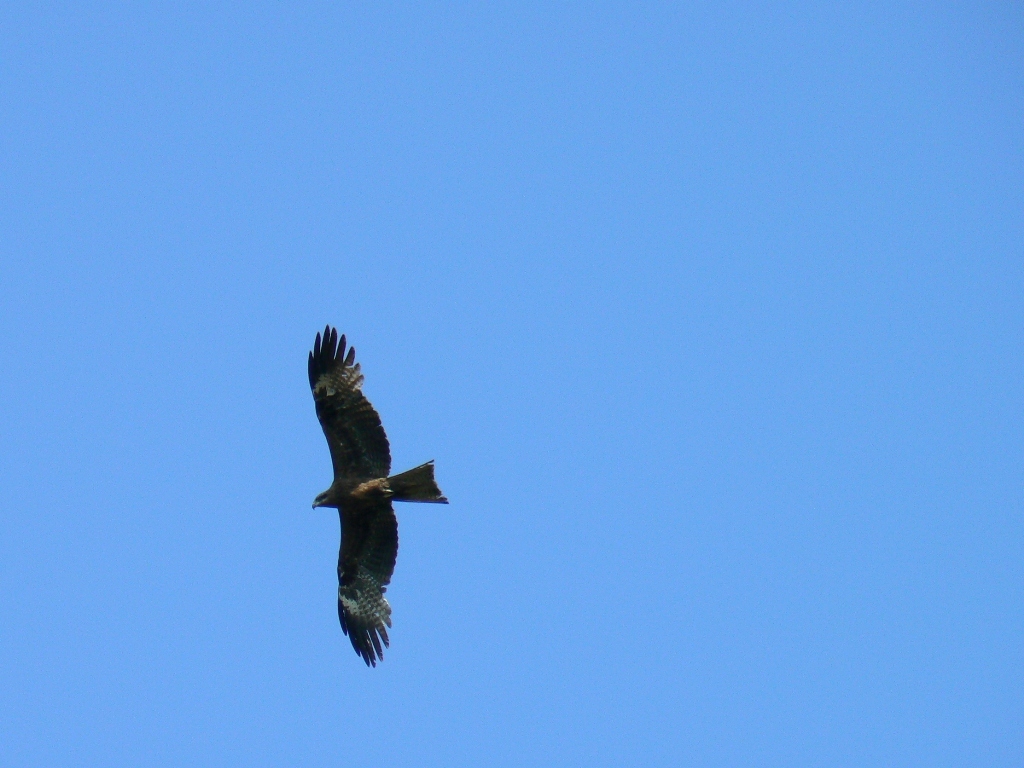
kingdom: Animalia
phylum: Chordata
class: Aves
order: Accipitriformes
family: Accipitridae
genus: Milvus
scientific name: Milvus migrans
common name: Black kite
